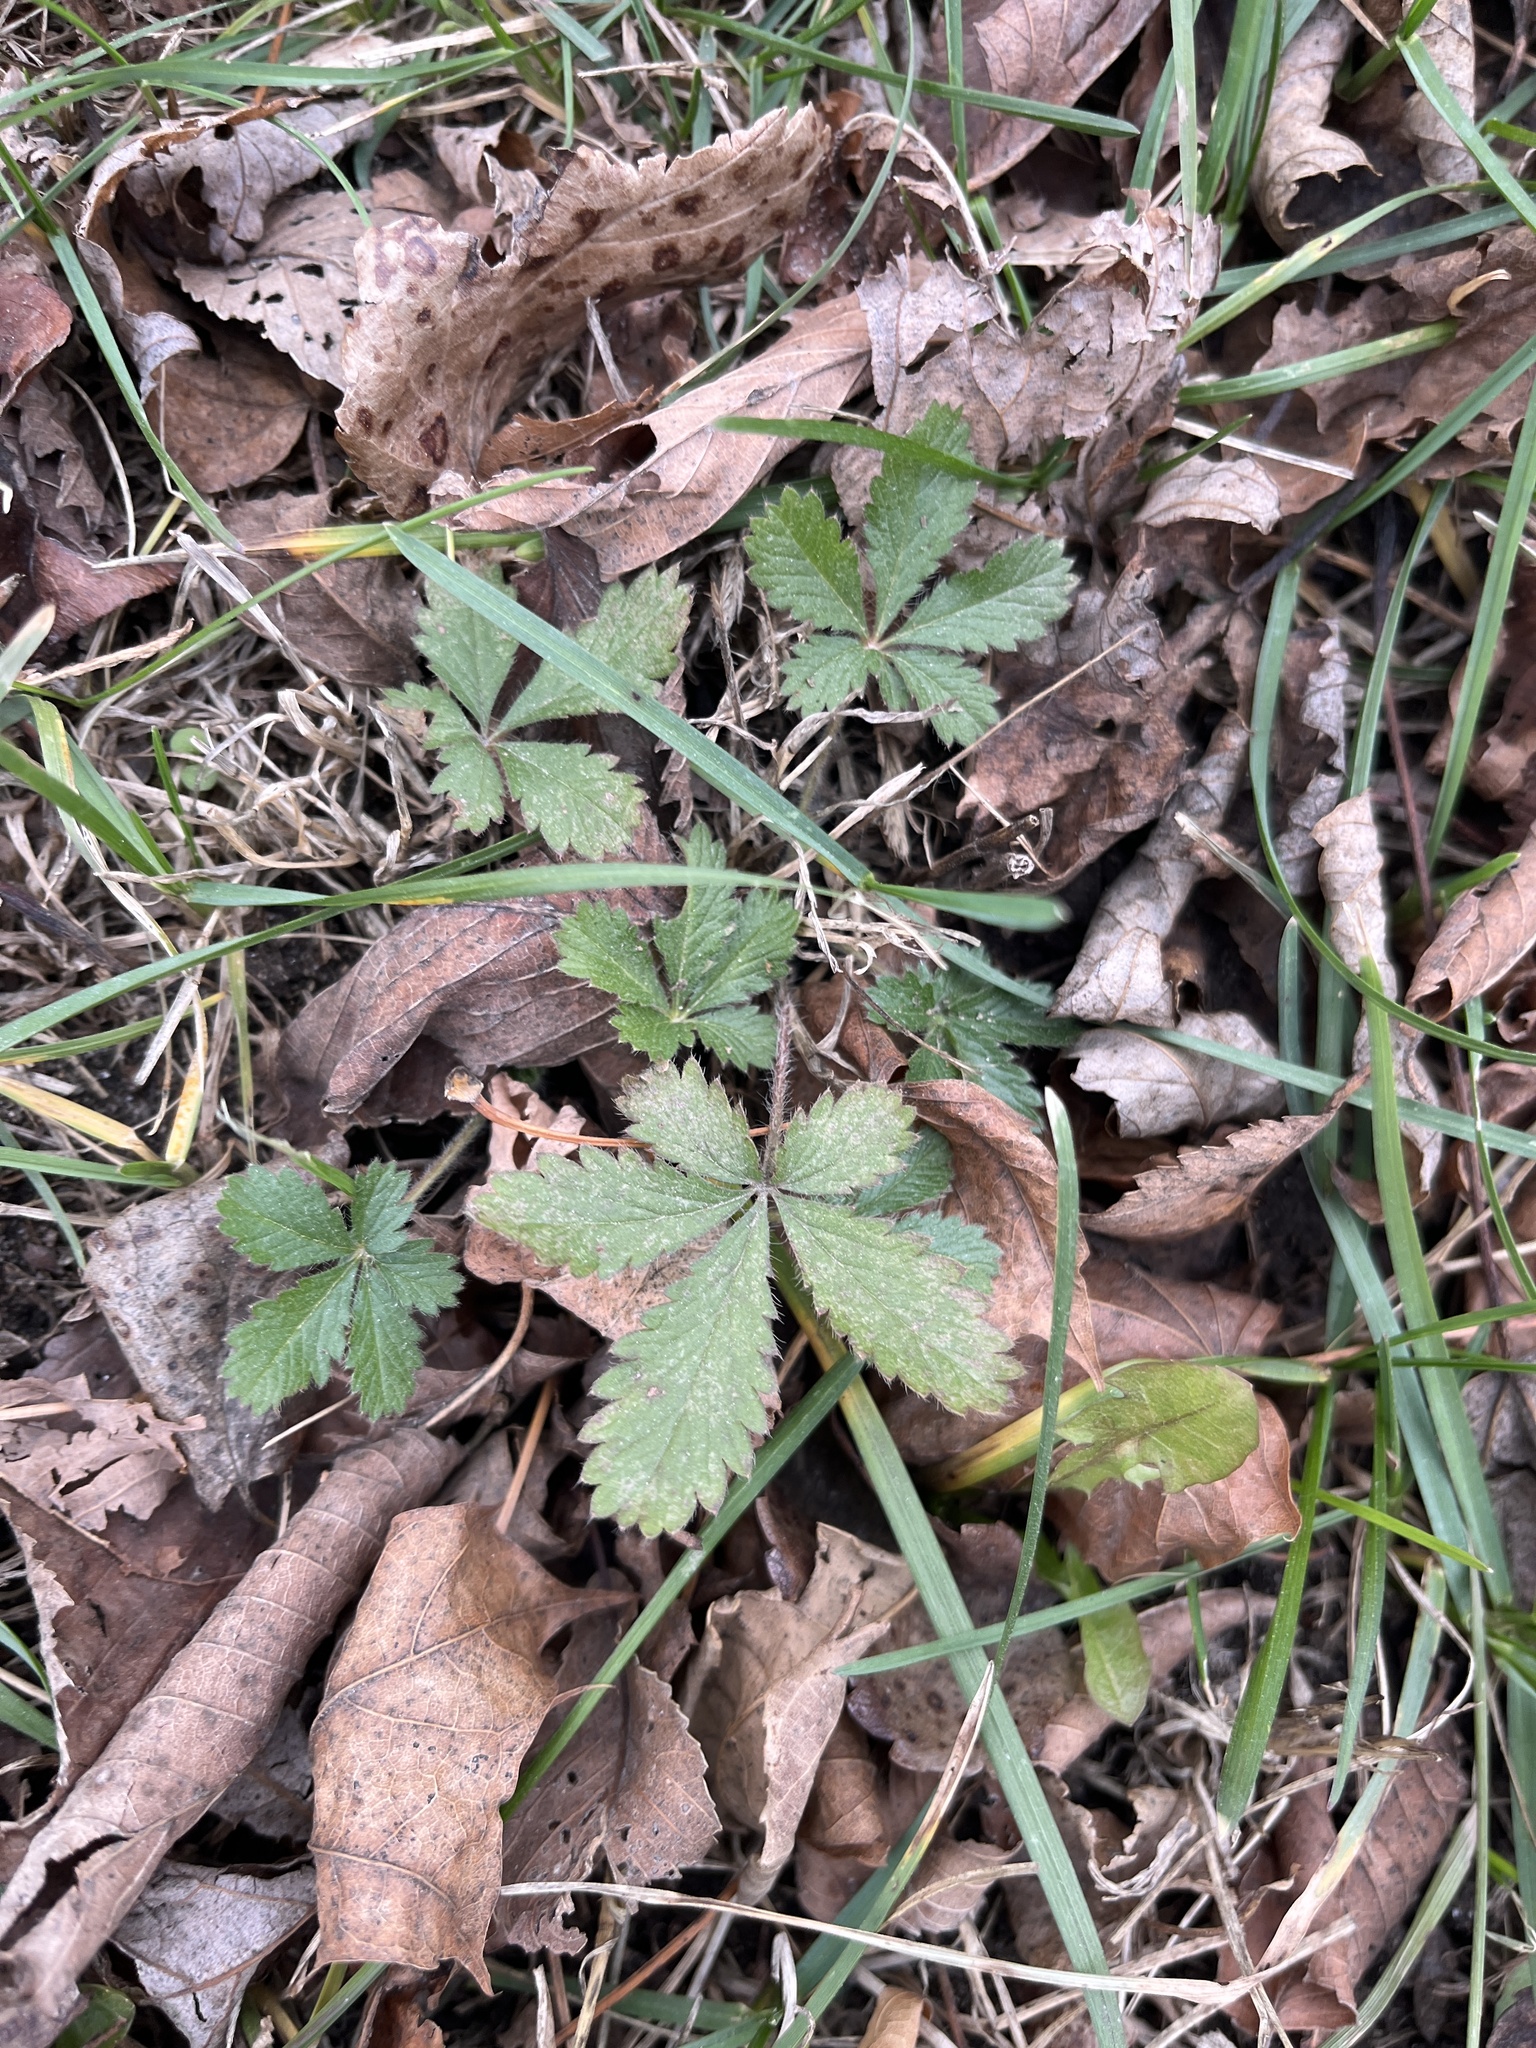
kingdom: Plantae
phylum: Tracheophyta
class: Magnoliopsida
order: Rosales
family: Rosaceae
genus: Potentilla
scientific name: Potentilla canadensis
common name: Canada cinquefoil
